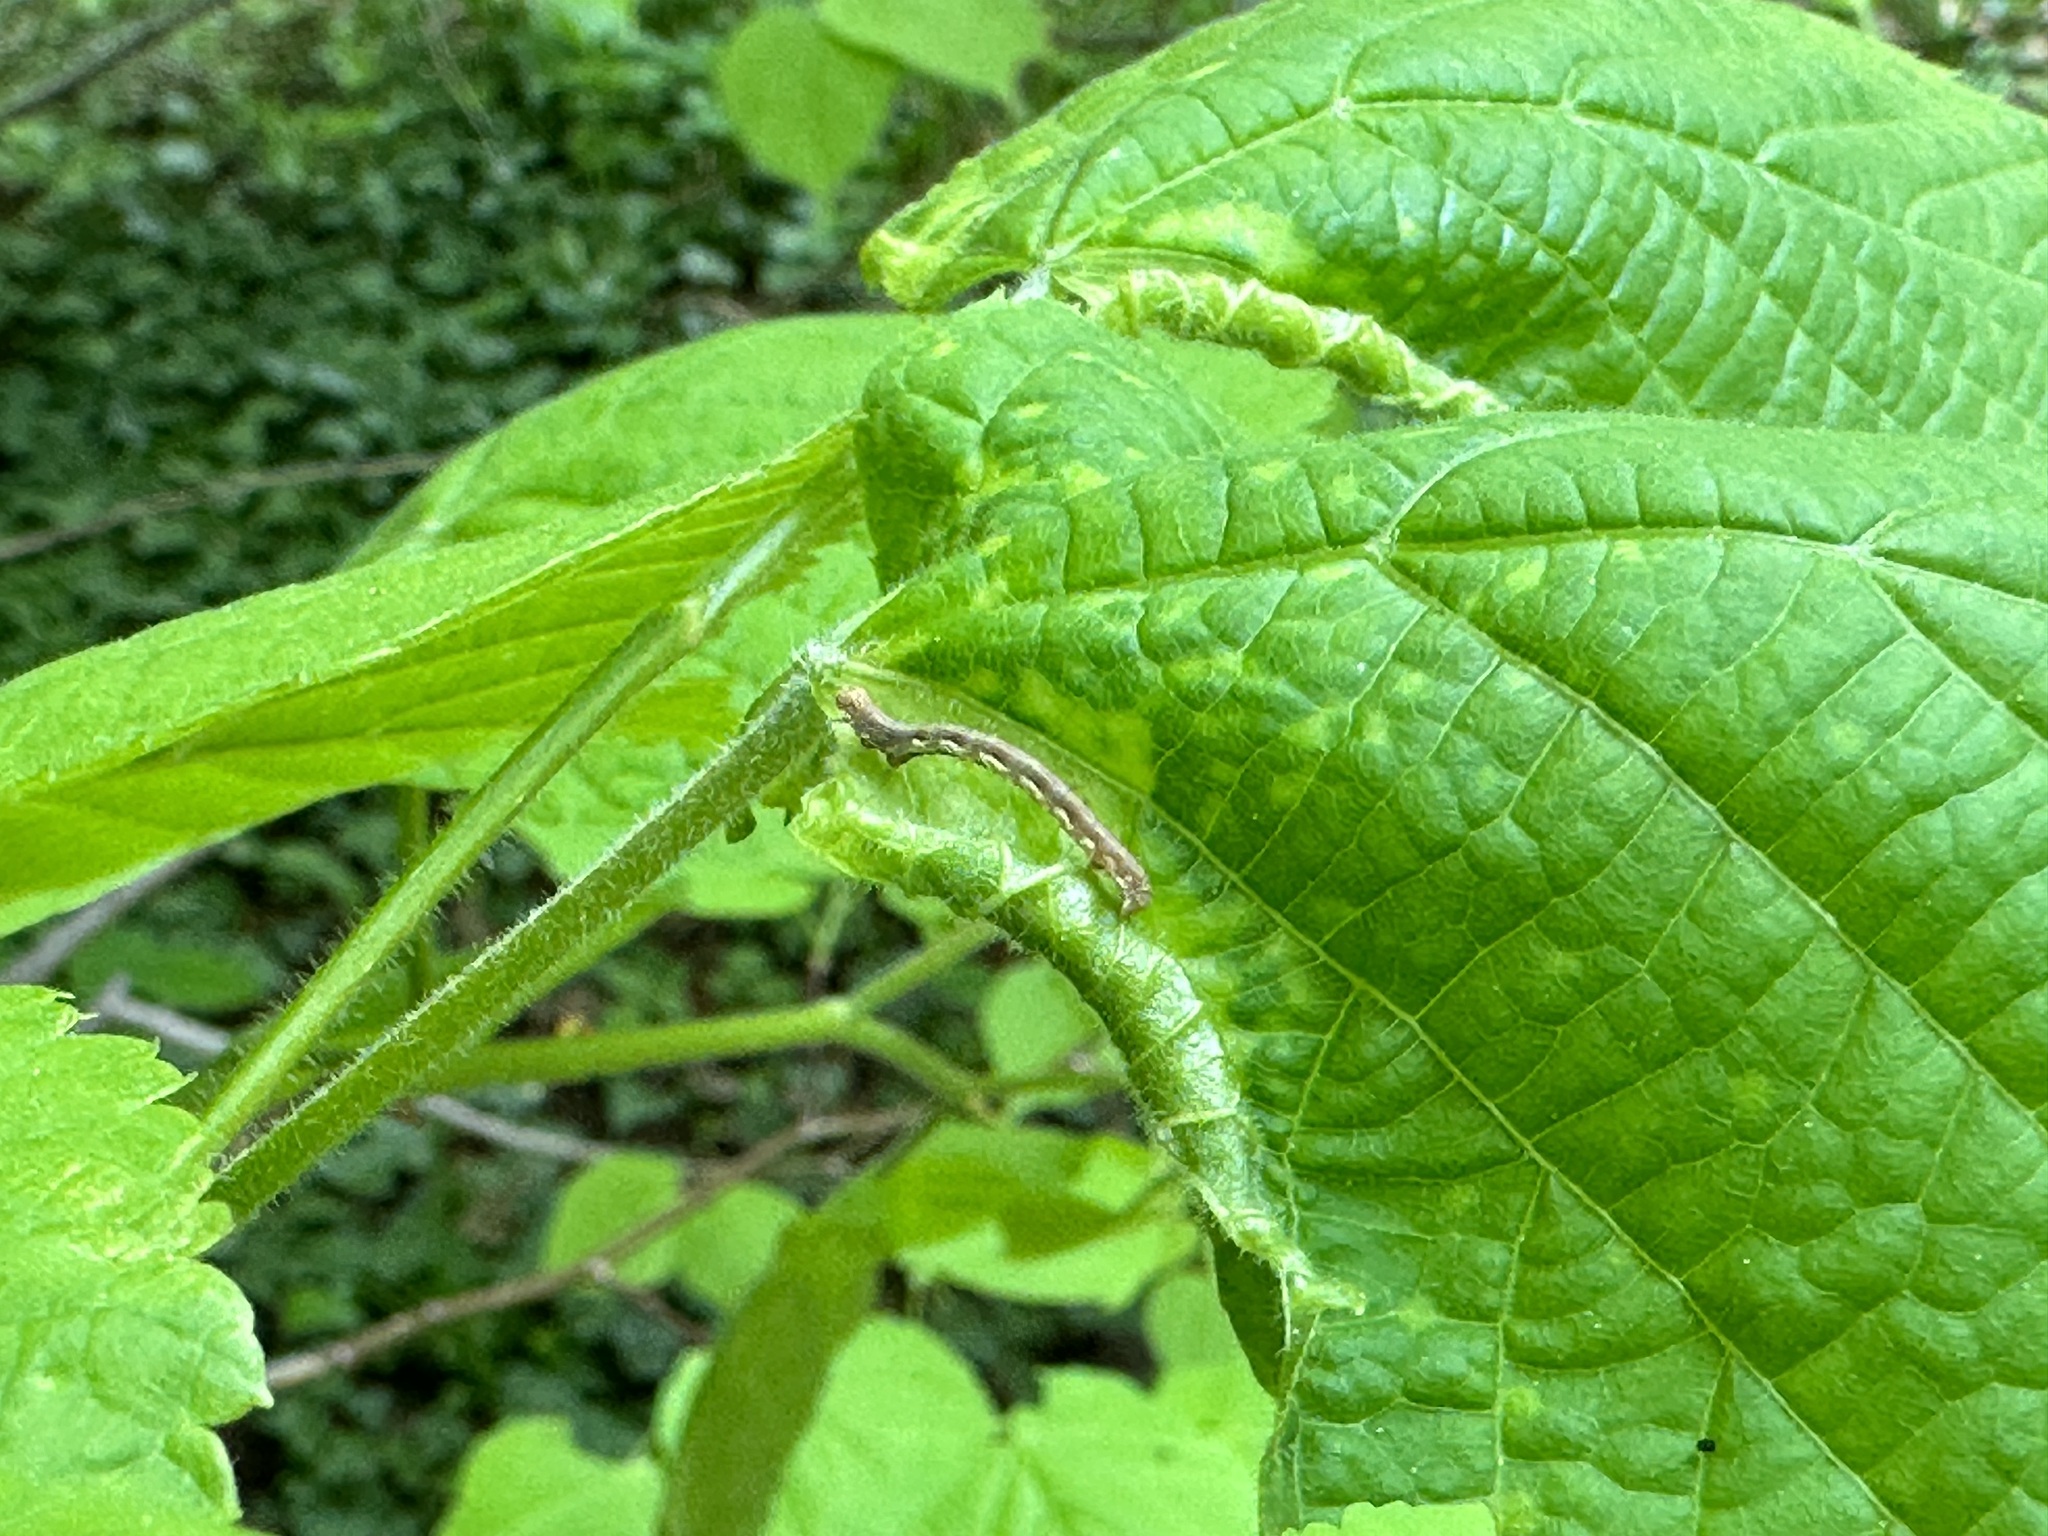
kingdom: Animalia
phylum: Arthropoda
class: Insecta
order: Lepidoptera
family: Geometridae
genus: Erannis
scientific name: Erannis defoliaria
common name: Mottled umber
